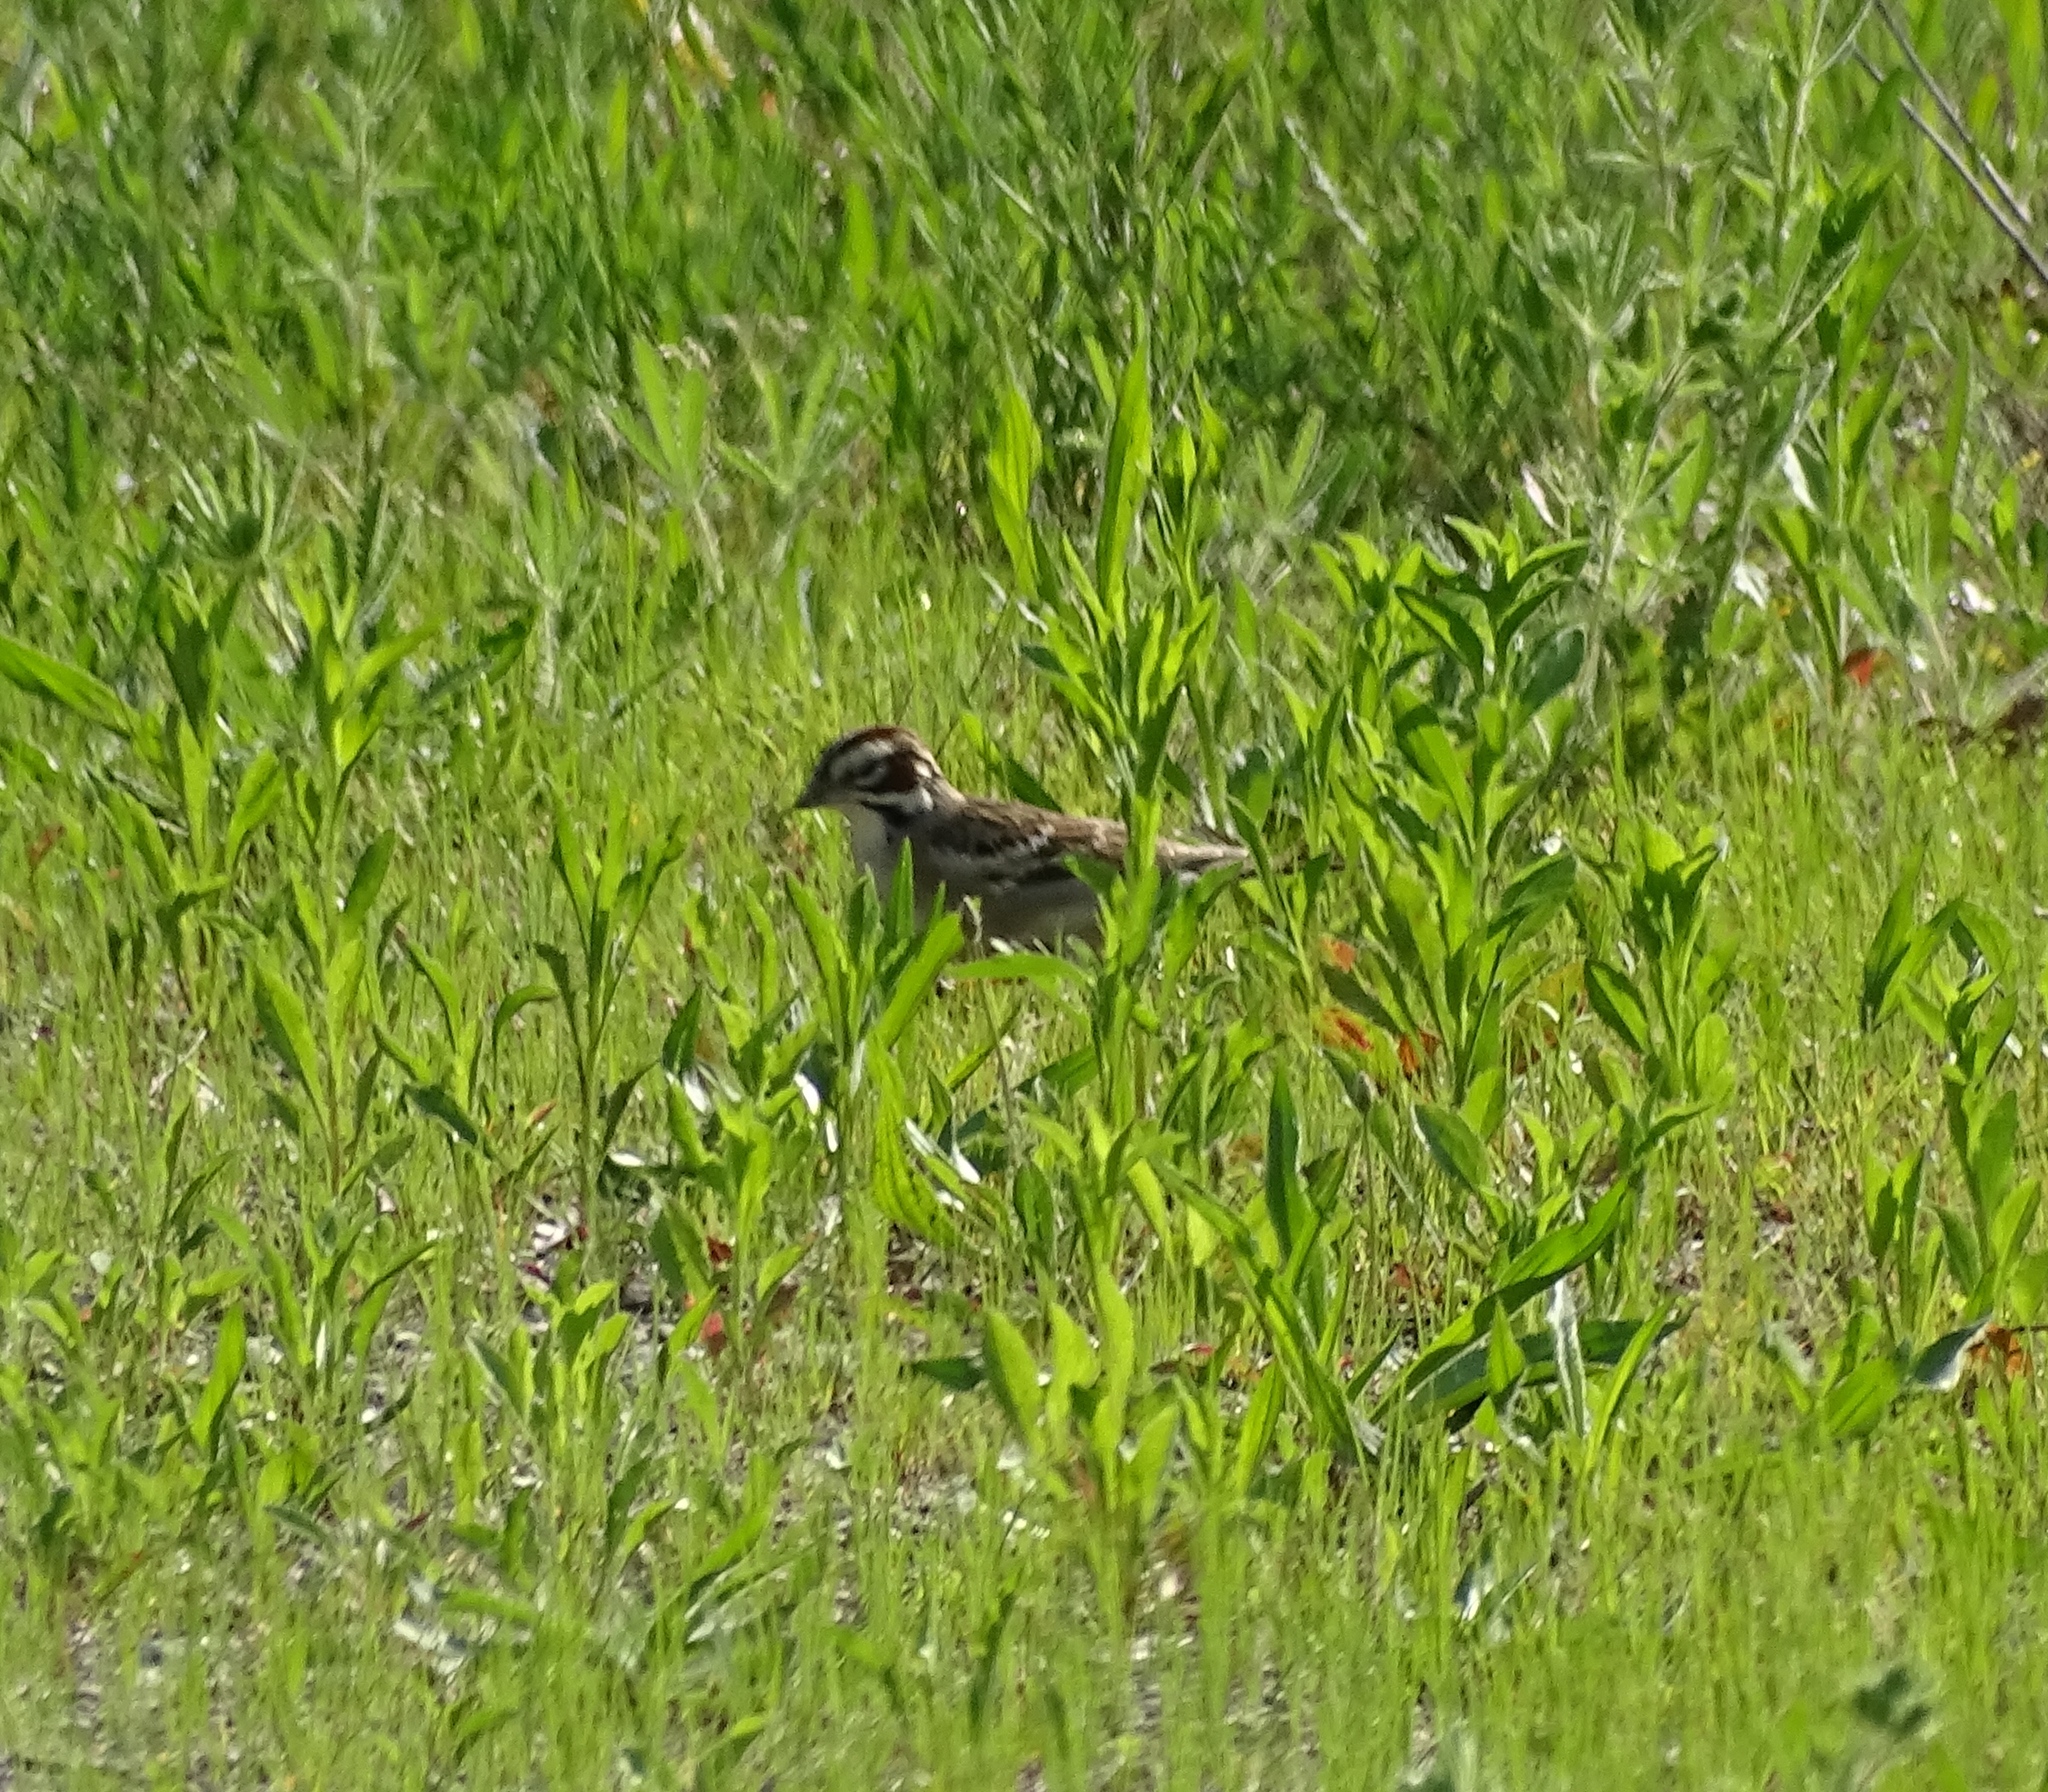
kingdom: Animalia
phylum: Chordata
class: Aves
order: Passeriformes
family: Passerellidae
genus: Chondestes
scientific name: Chondestes grammacus
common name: Lark sparrow
